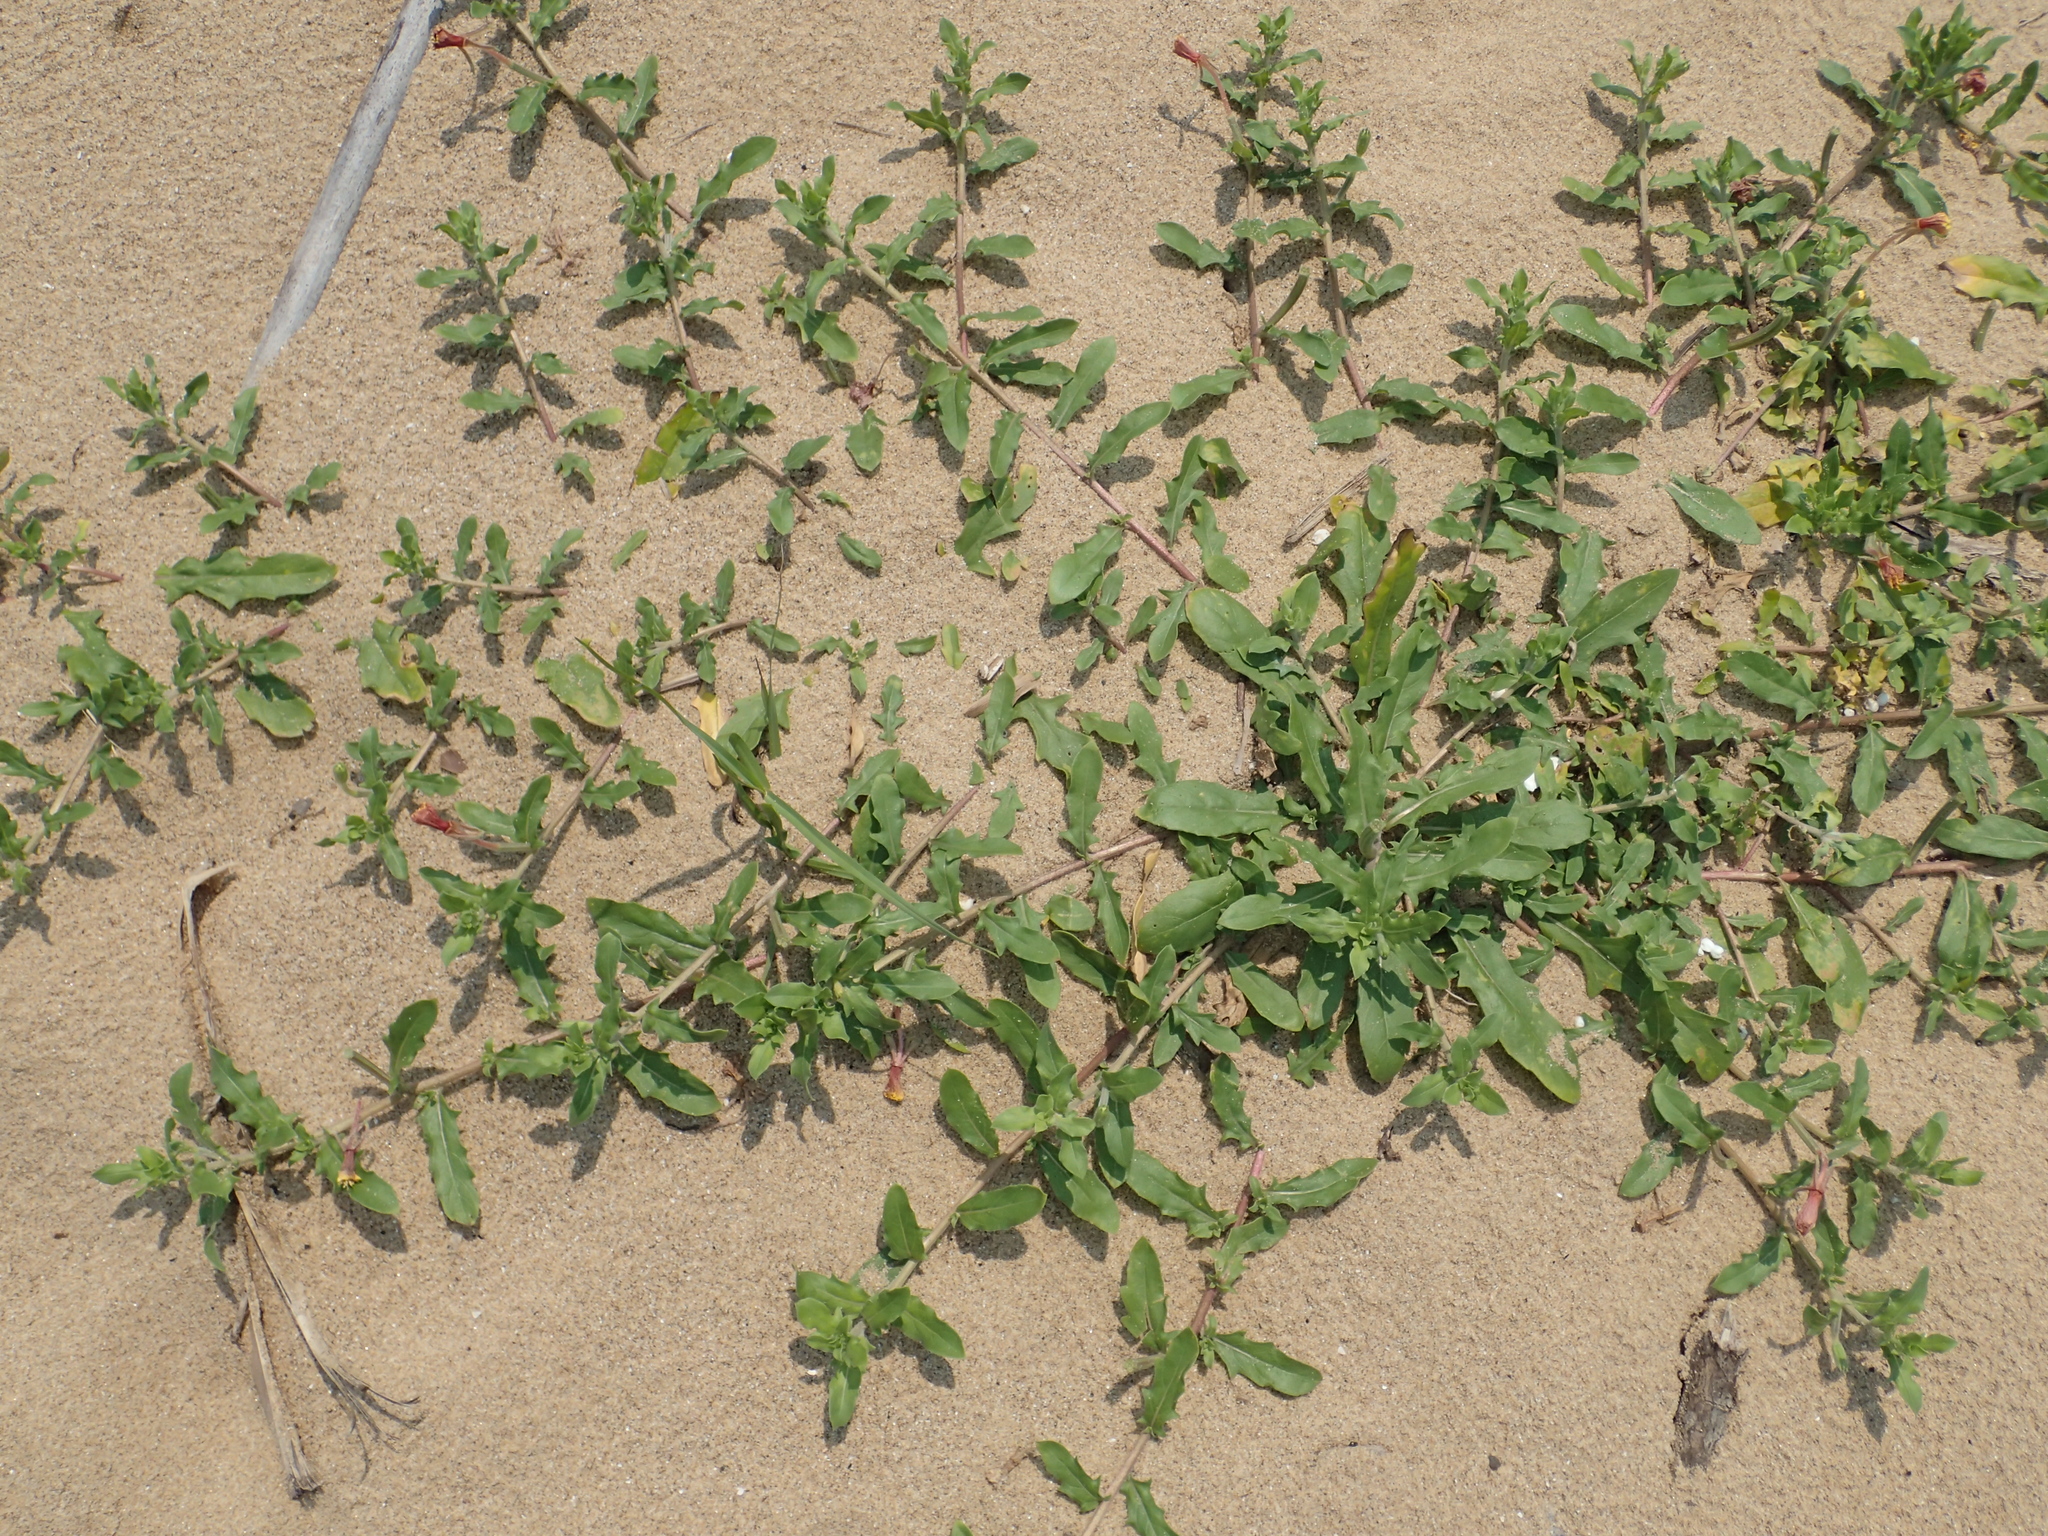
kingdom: Plantae
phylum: Tracheophyta
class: Magnoliopsida
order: Myrtales
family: Onagraceae
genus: Oenothera
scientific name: Oenothera laciniata
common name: Cut-leaved evening-primrose
